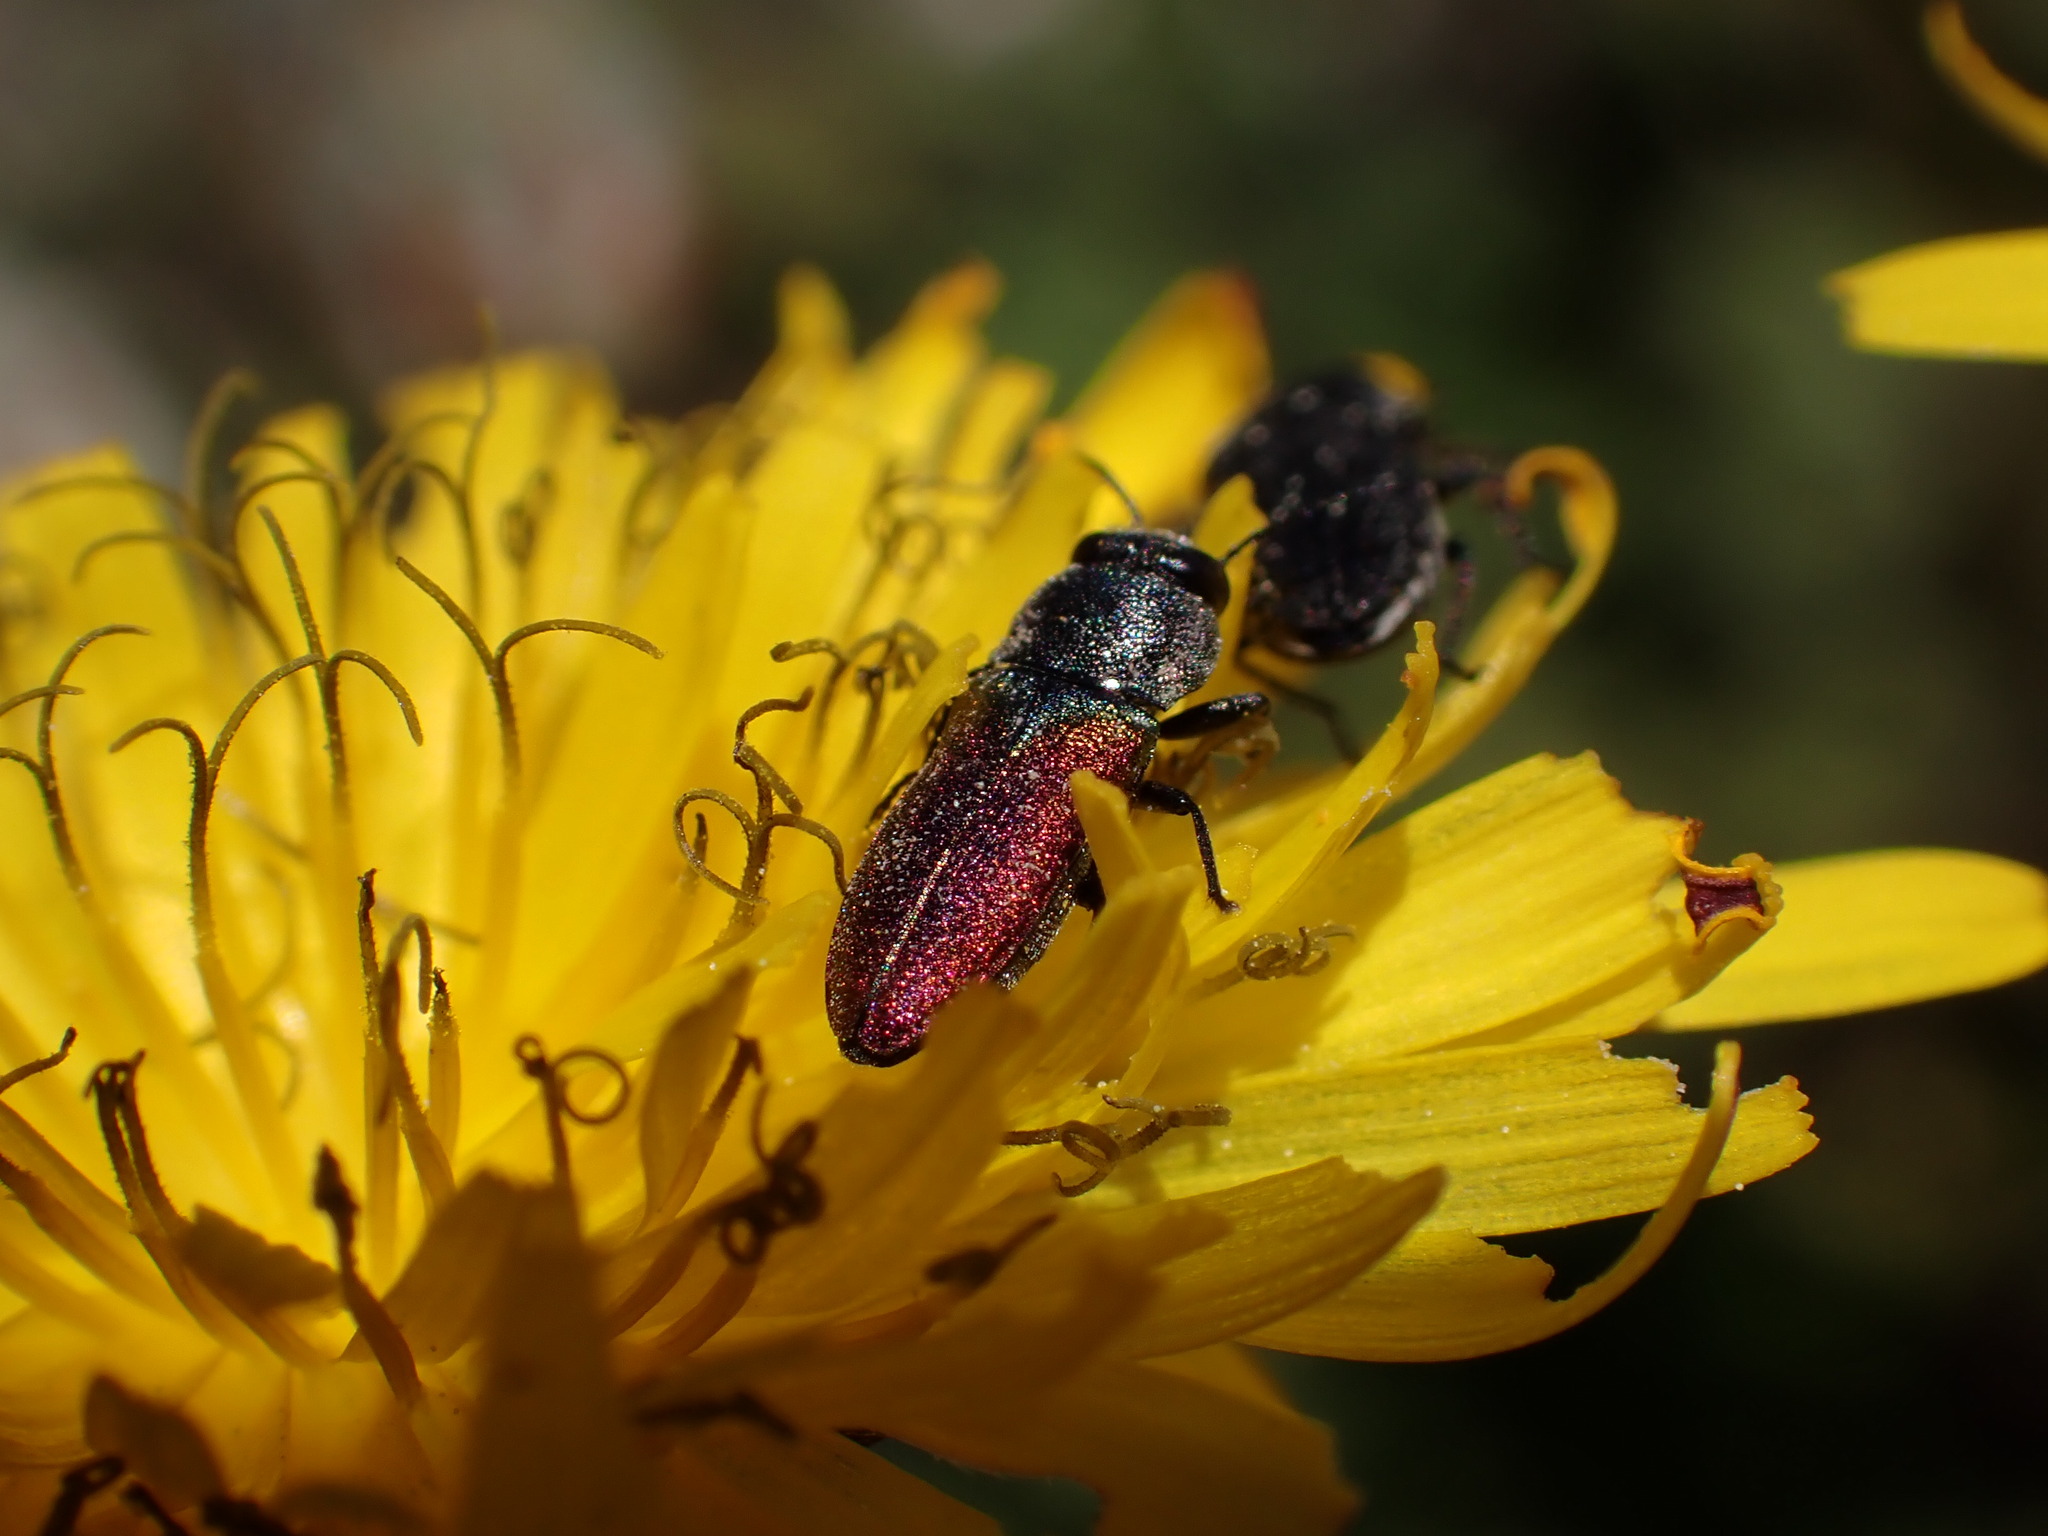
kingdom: Animalia
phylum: Arthropoda
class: Insecta
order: Coleoptera
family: Buprestidae
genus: Anthaxia
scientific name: Anthaxia parallela
